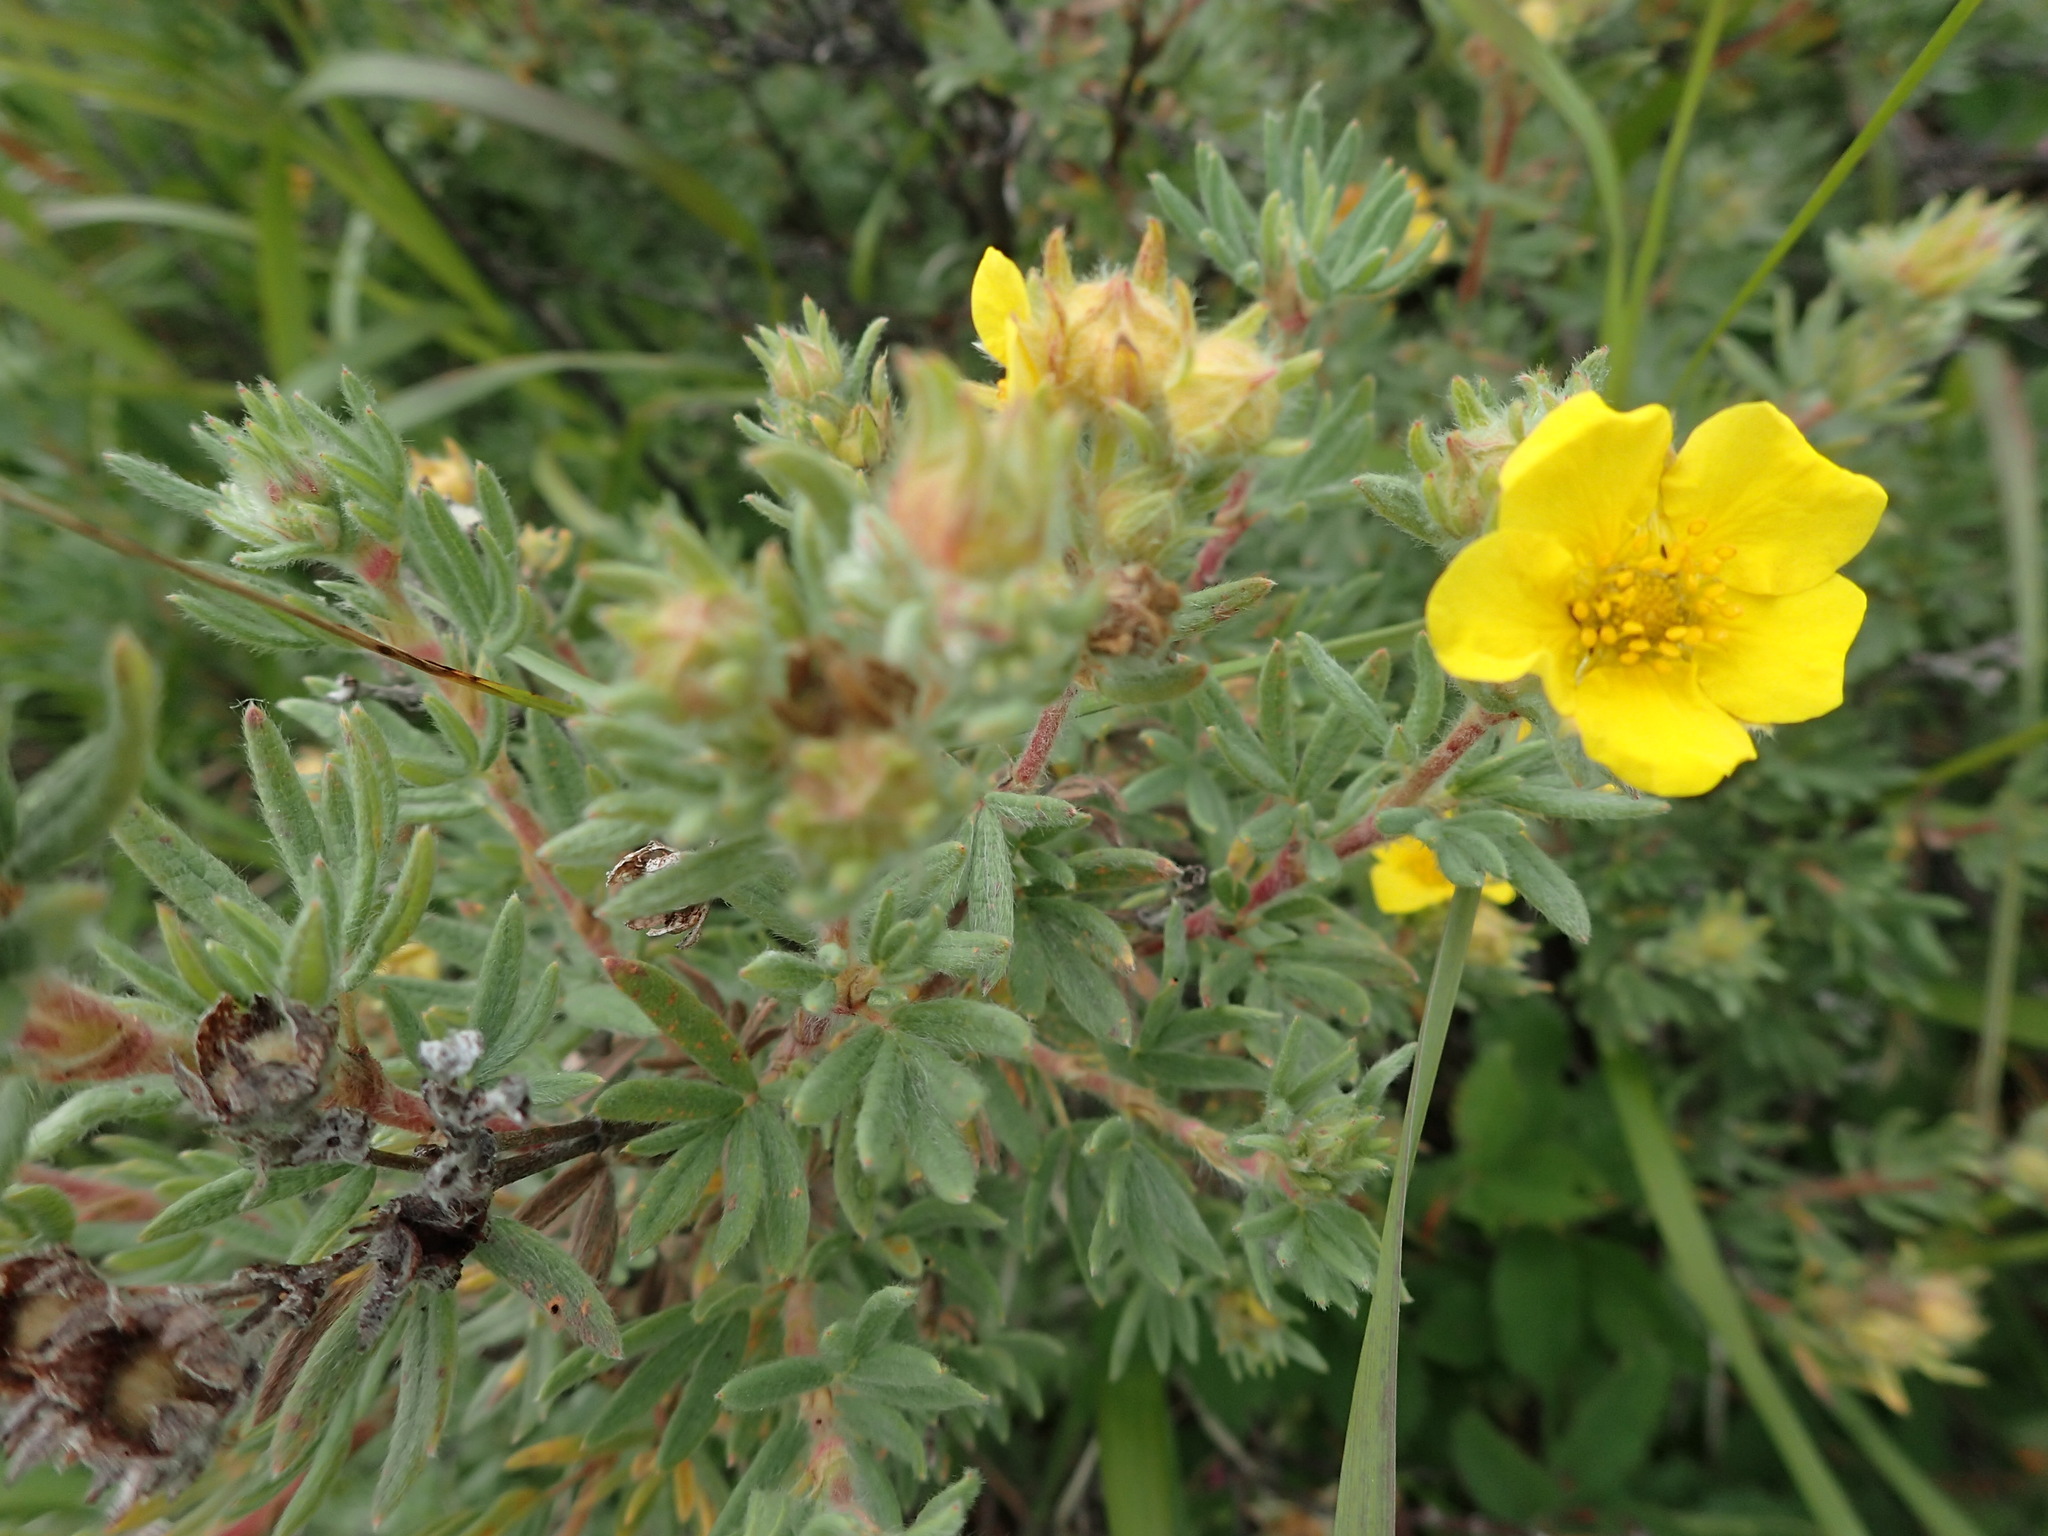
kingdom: Plantae
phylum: Tracheophyta
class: Magnoliopsida
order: Rosales
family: Rosaceae
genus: Dasiphora
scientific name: Dasiphora fruticosa
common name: Shrubby cinquefoil
